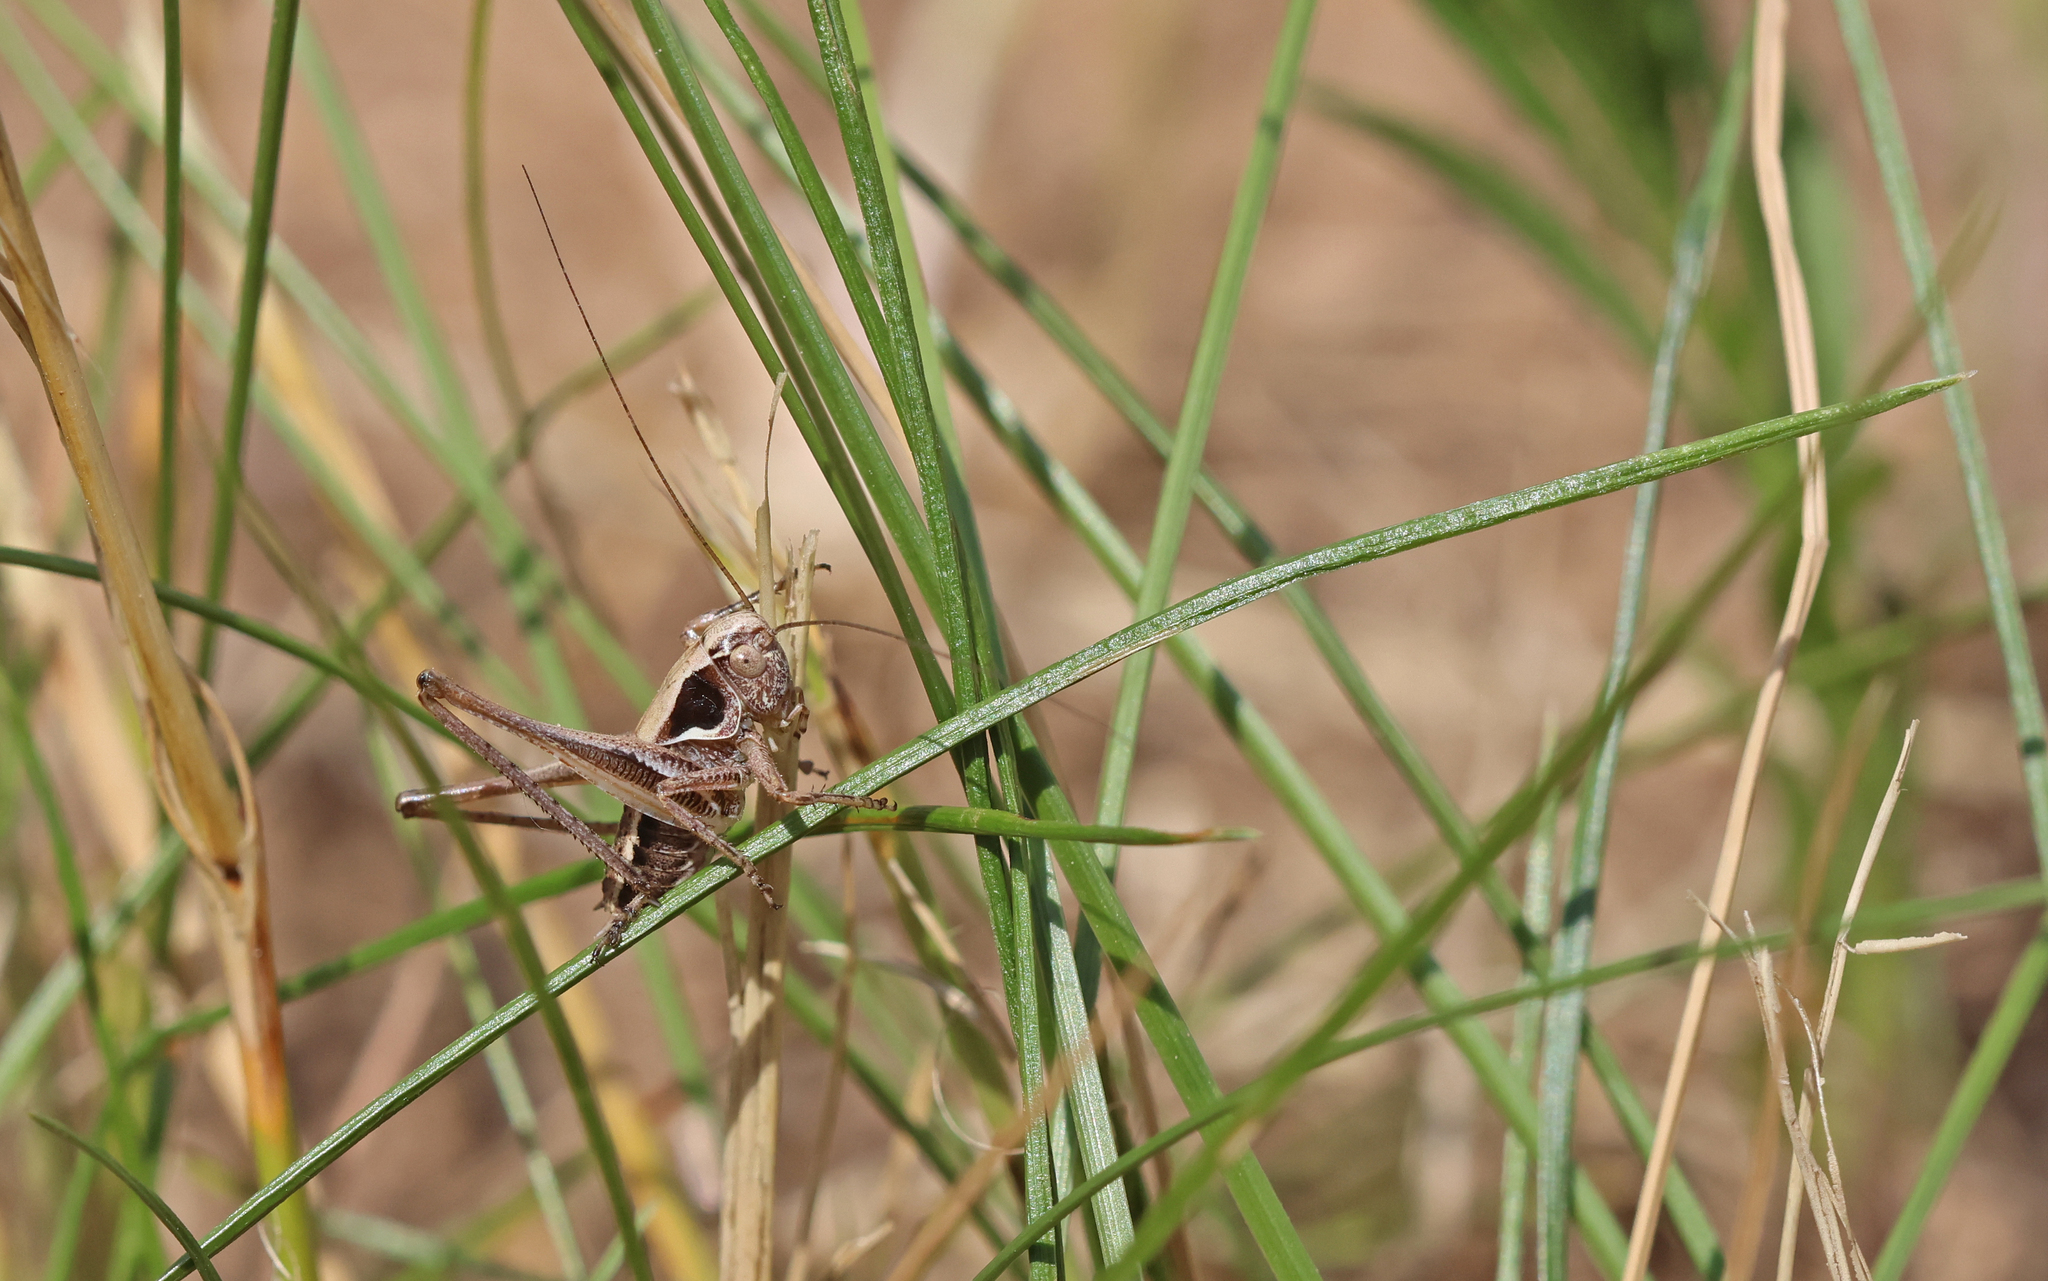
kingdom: Animalia
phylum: Arthropoda
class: Insecta
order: Orthoptera
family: Tettigoniidae
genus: Platycleis
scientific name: Platycleis albopunctata
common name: Grey bush-cricket
